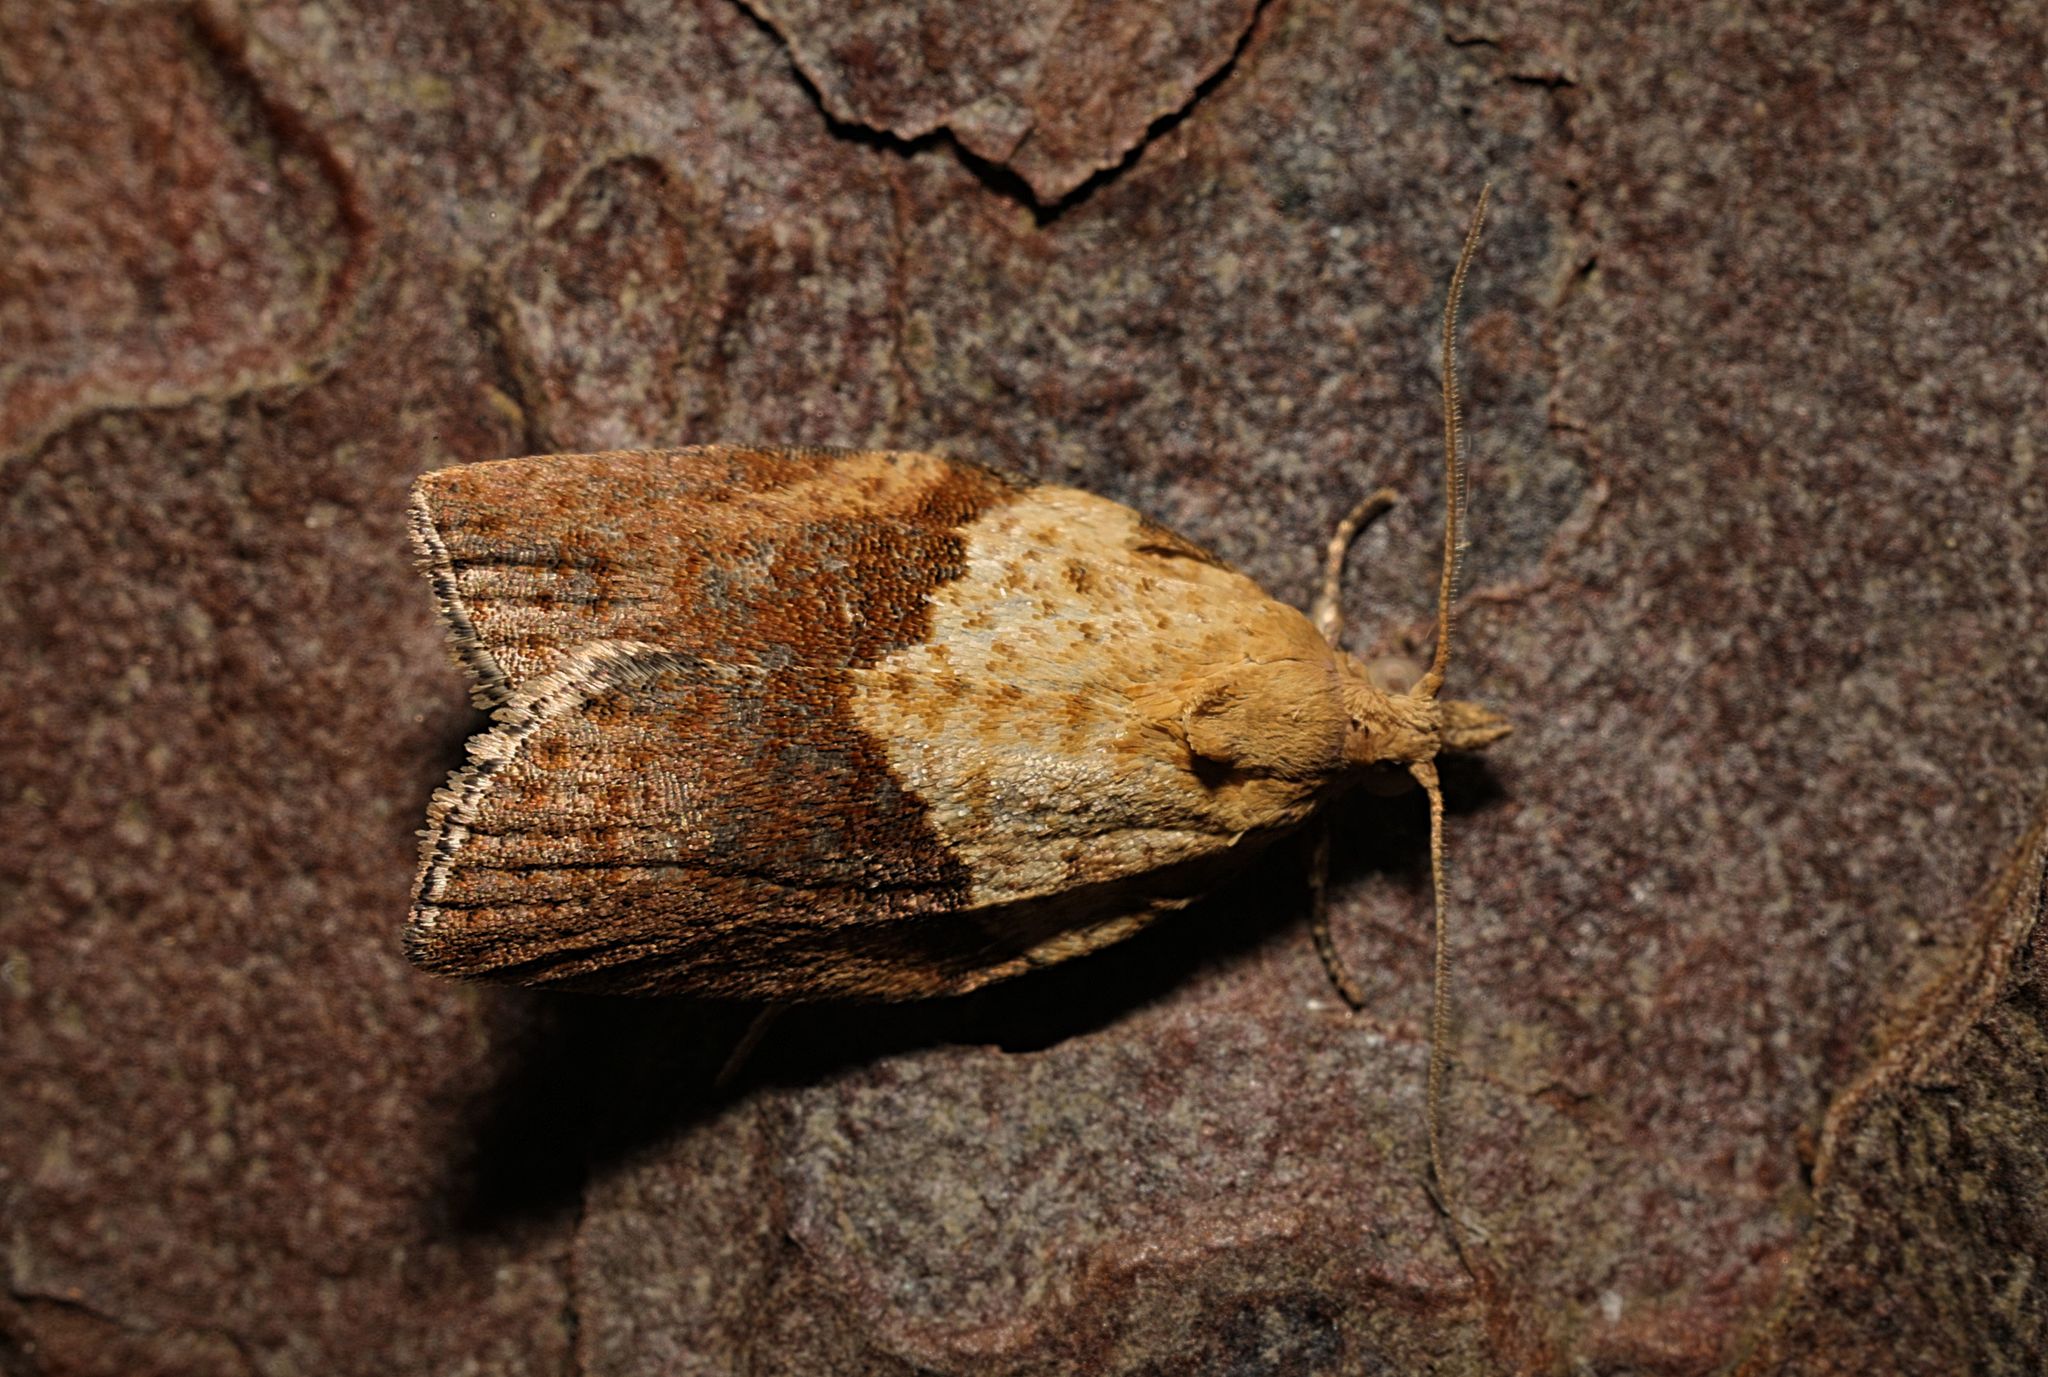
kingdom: Animalia
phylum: Arthropoda
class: Insecta
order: Lepidoptera
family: Tortricidae
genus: Epiphyas
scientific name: Epiphyas postvittana
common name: Light brown apple moth
